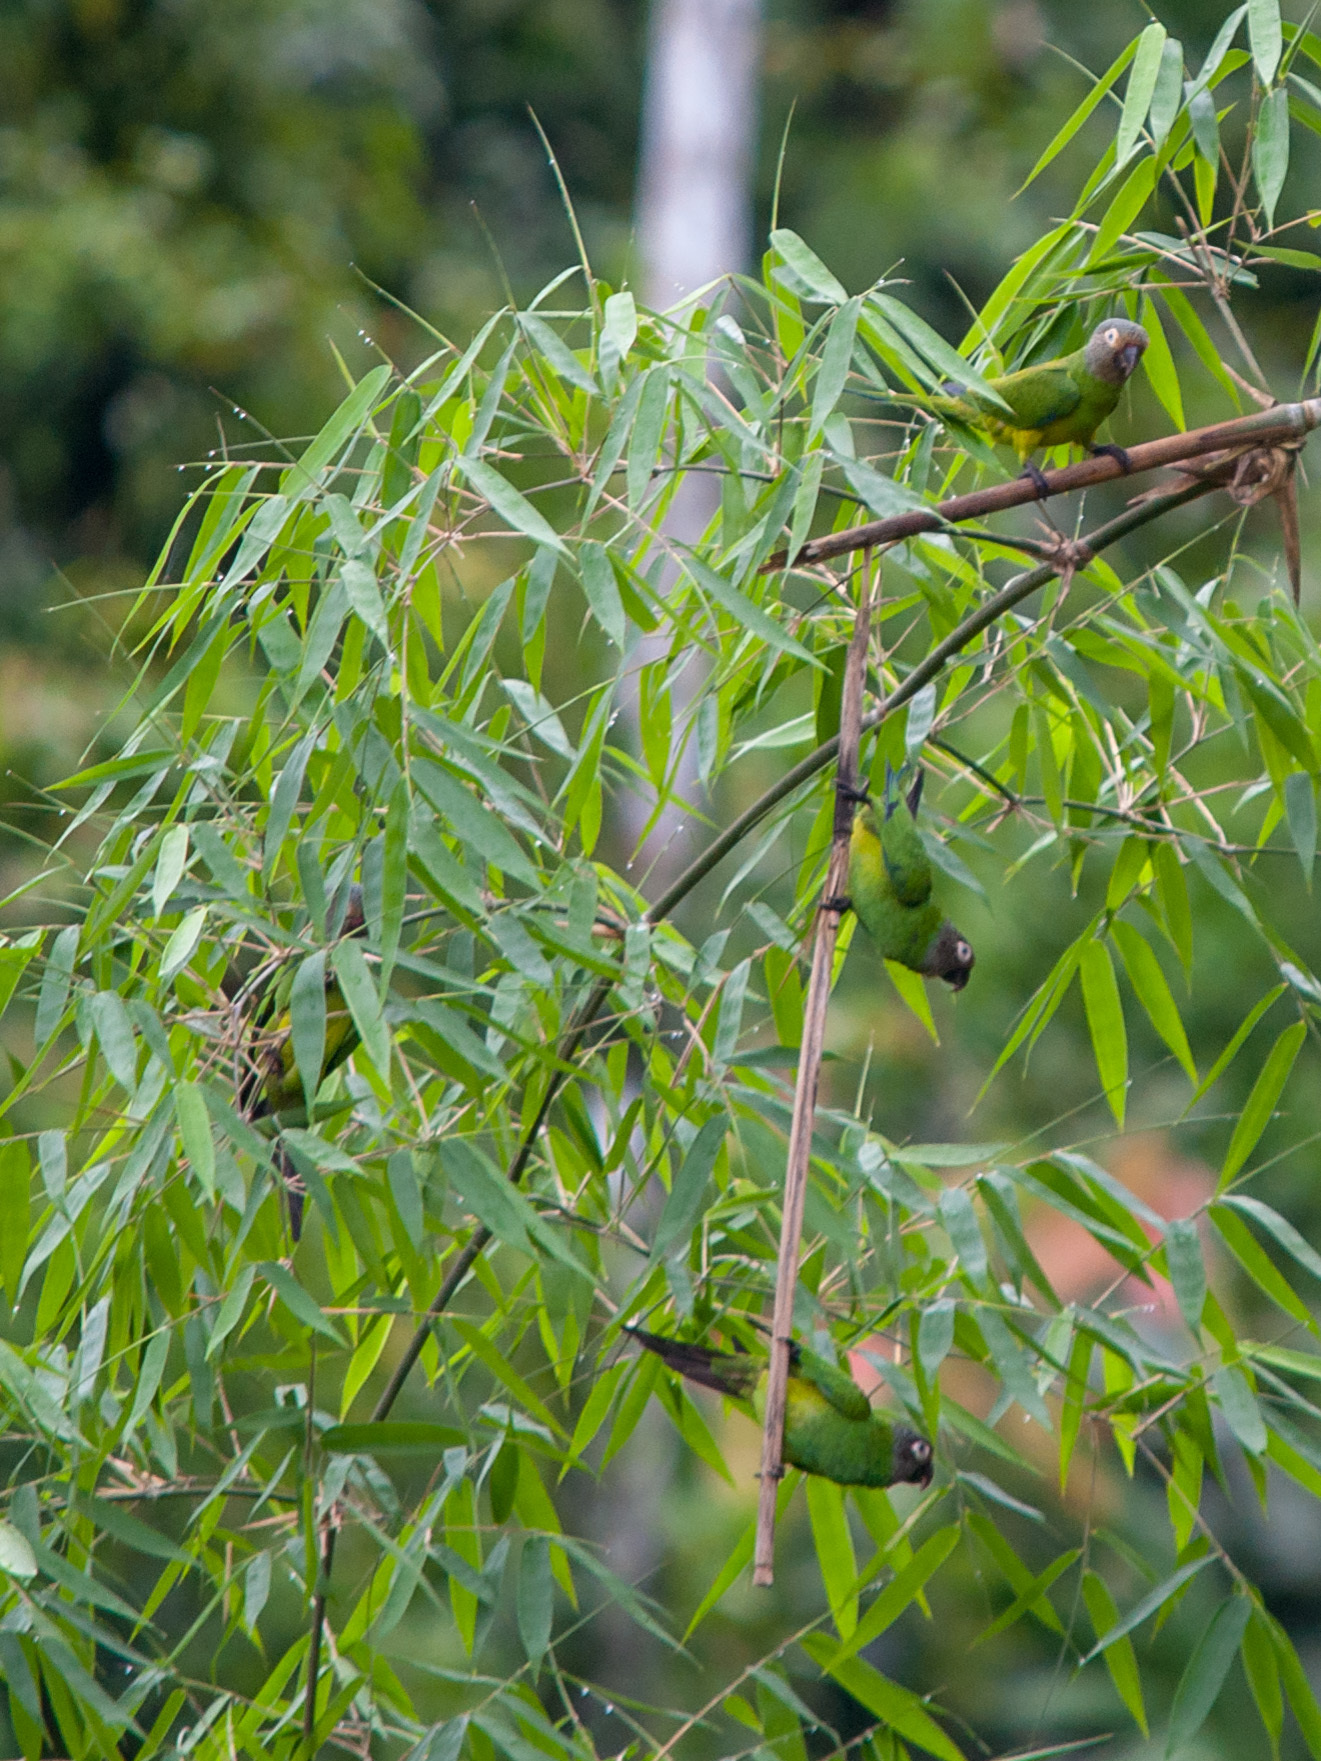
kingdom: Animalia
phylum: Chordata
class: Aves
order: Psittaciformes
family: Psittacidae
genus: Aratinga
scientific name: Aratinga weddellii
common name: Dusky-headed parakeet
